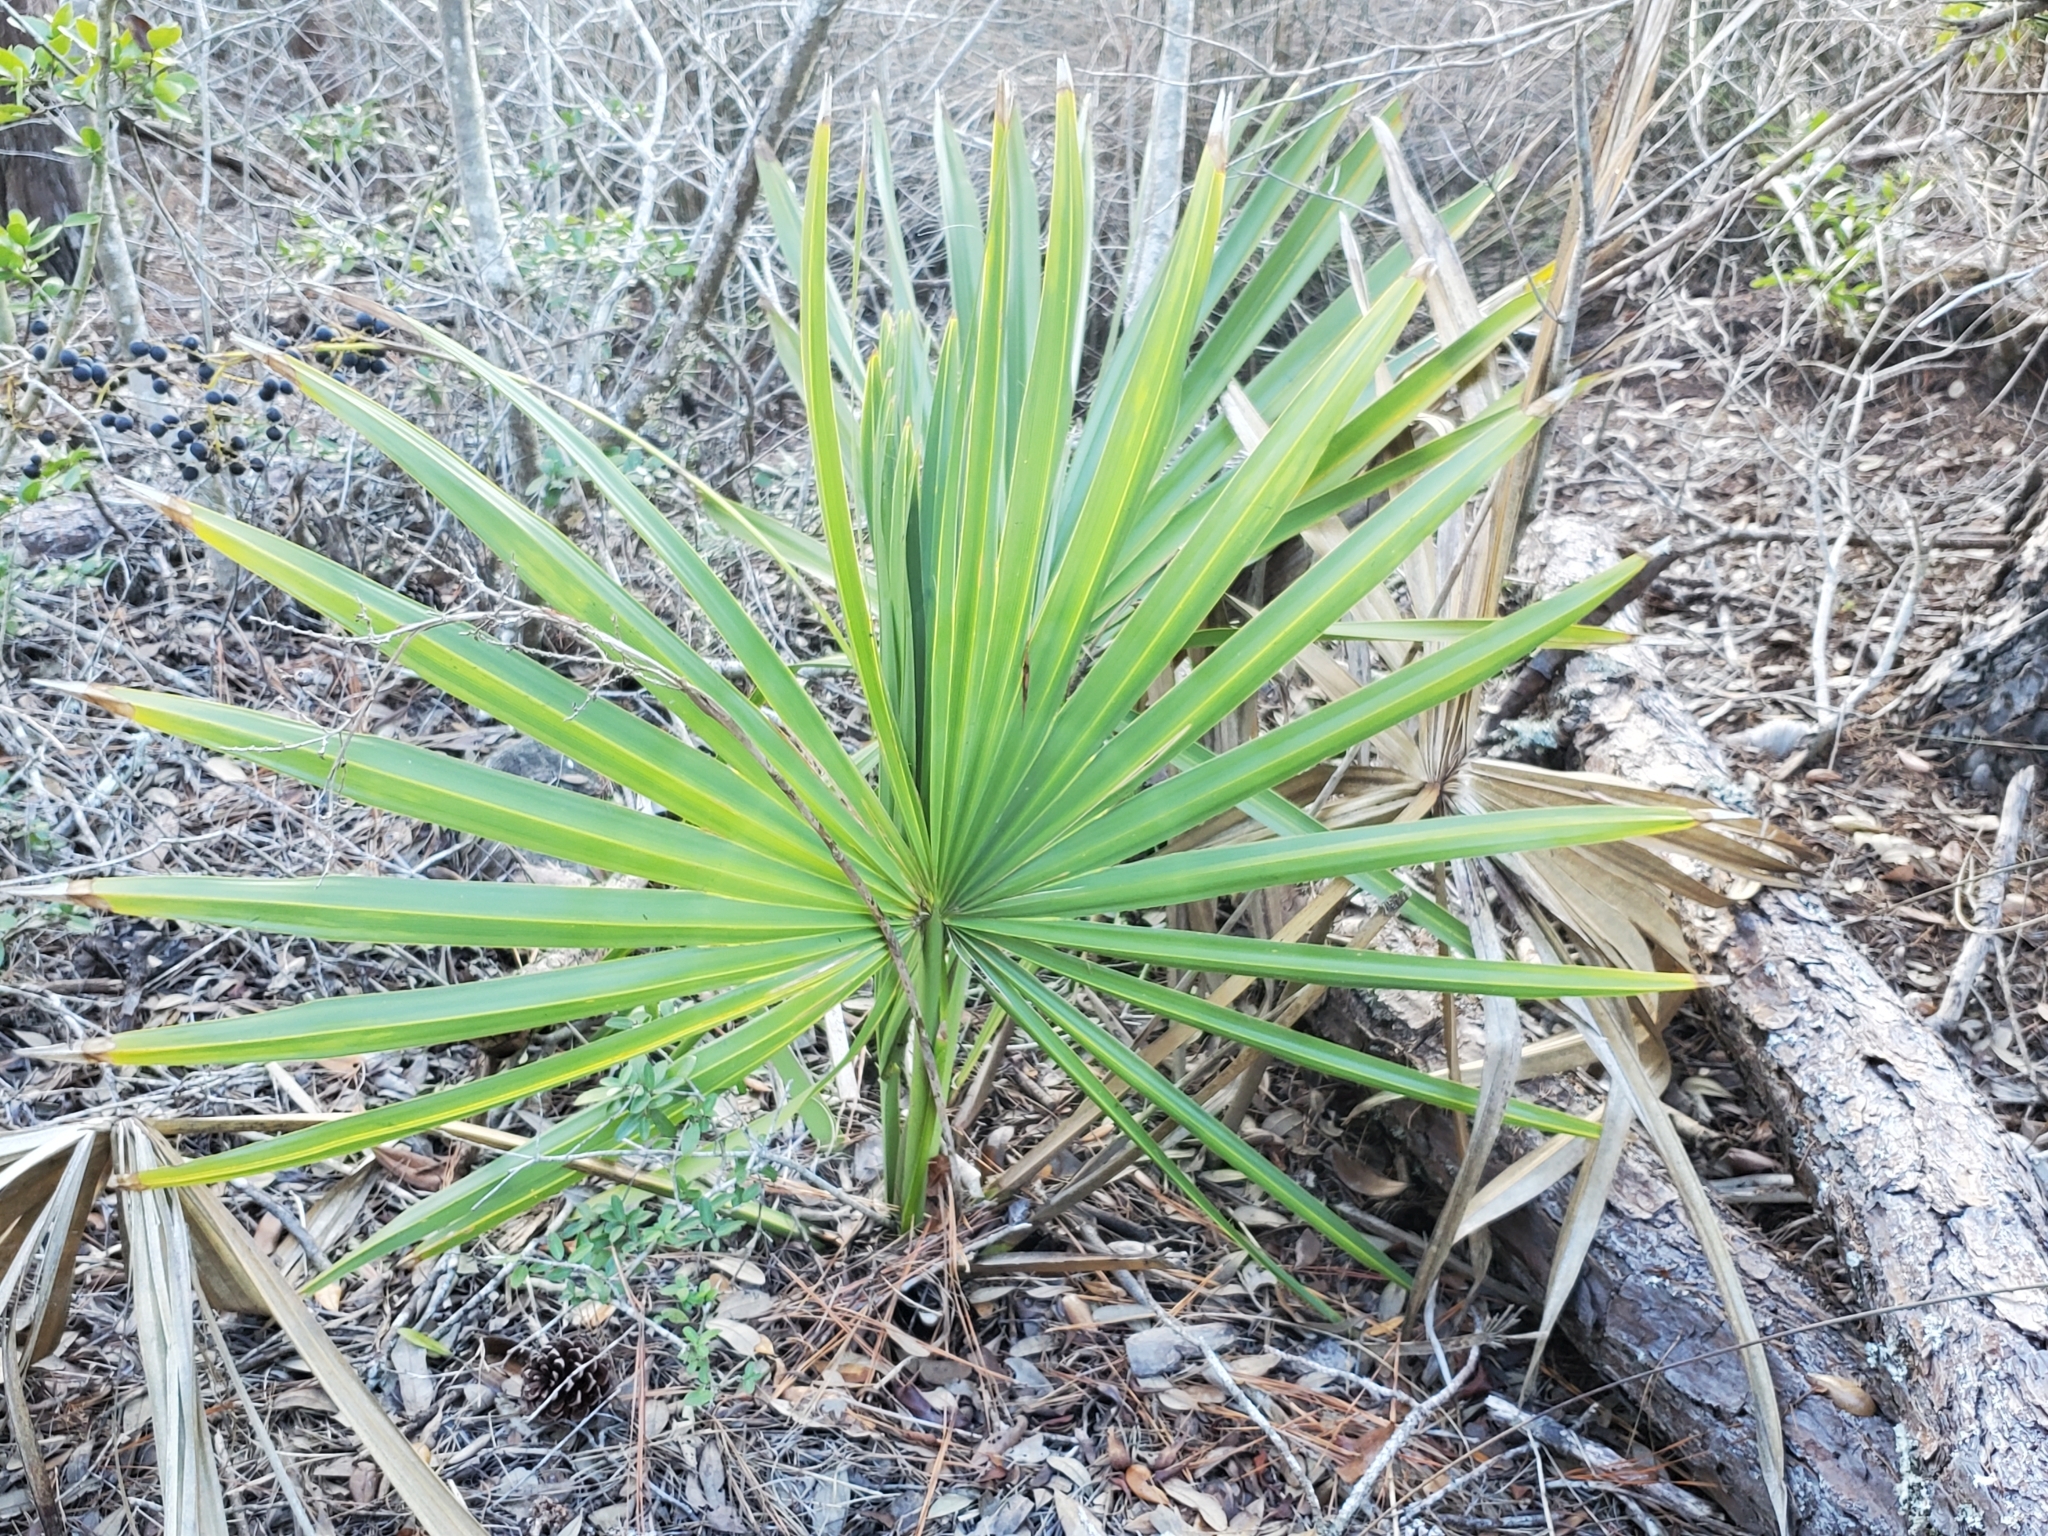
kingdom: Plantae
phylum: Tracheophyta
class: Liliopsida
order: Arecales
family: Arecaceae
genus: Sabal
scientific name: Sabal minor
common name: Dwarf palmetto
